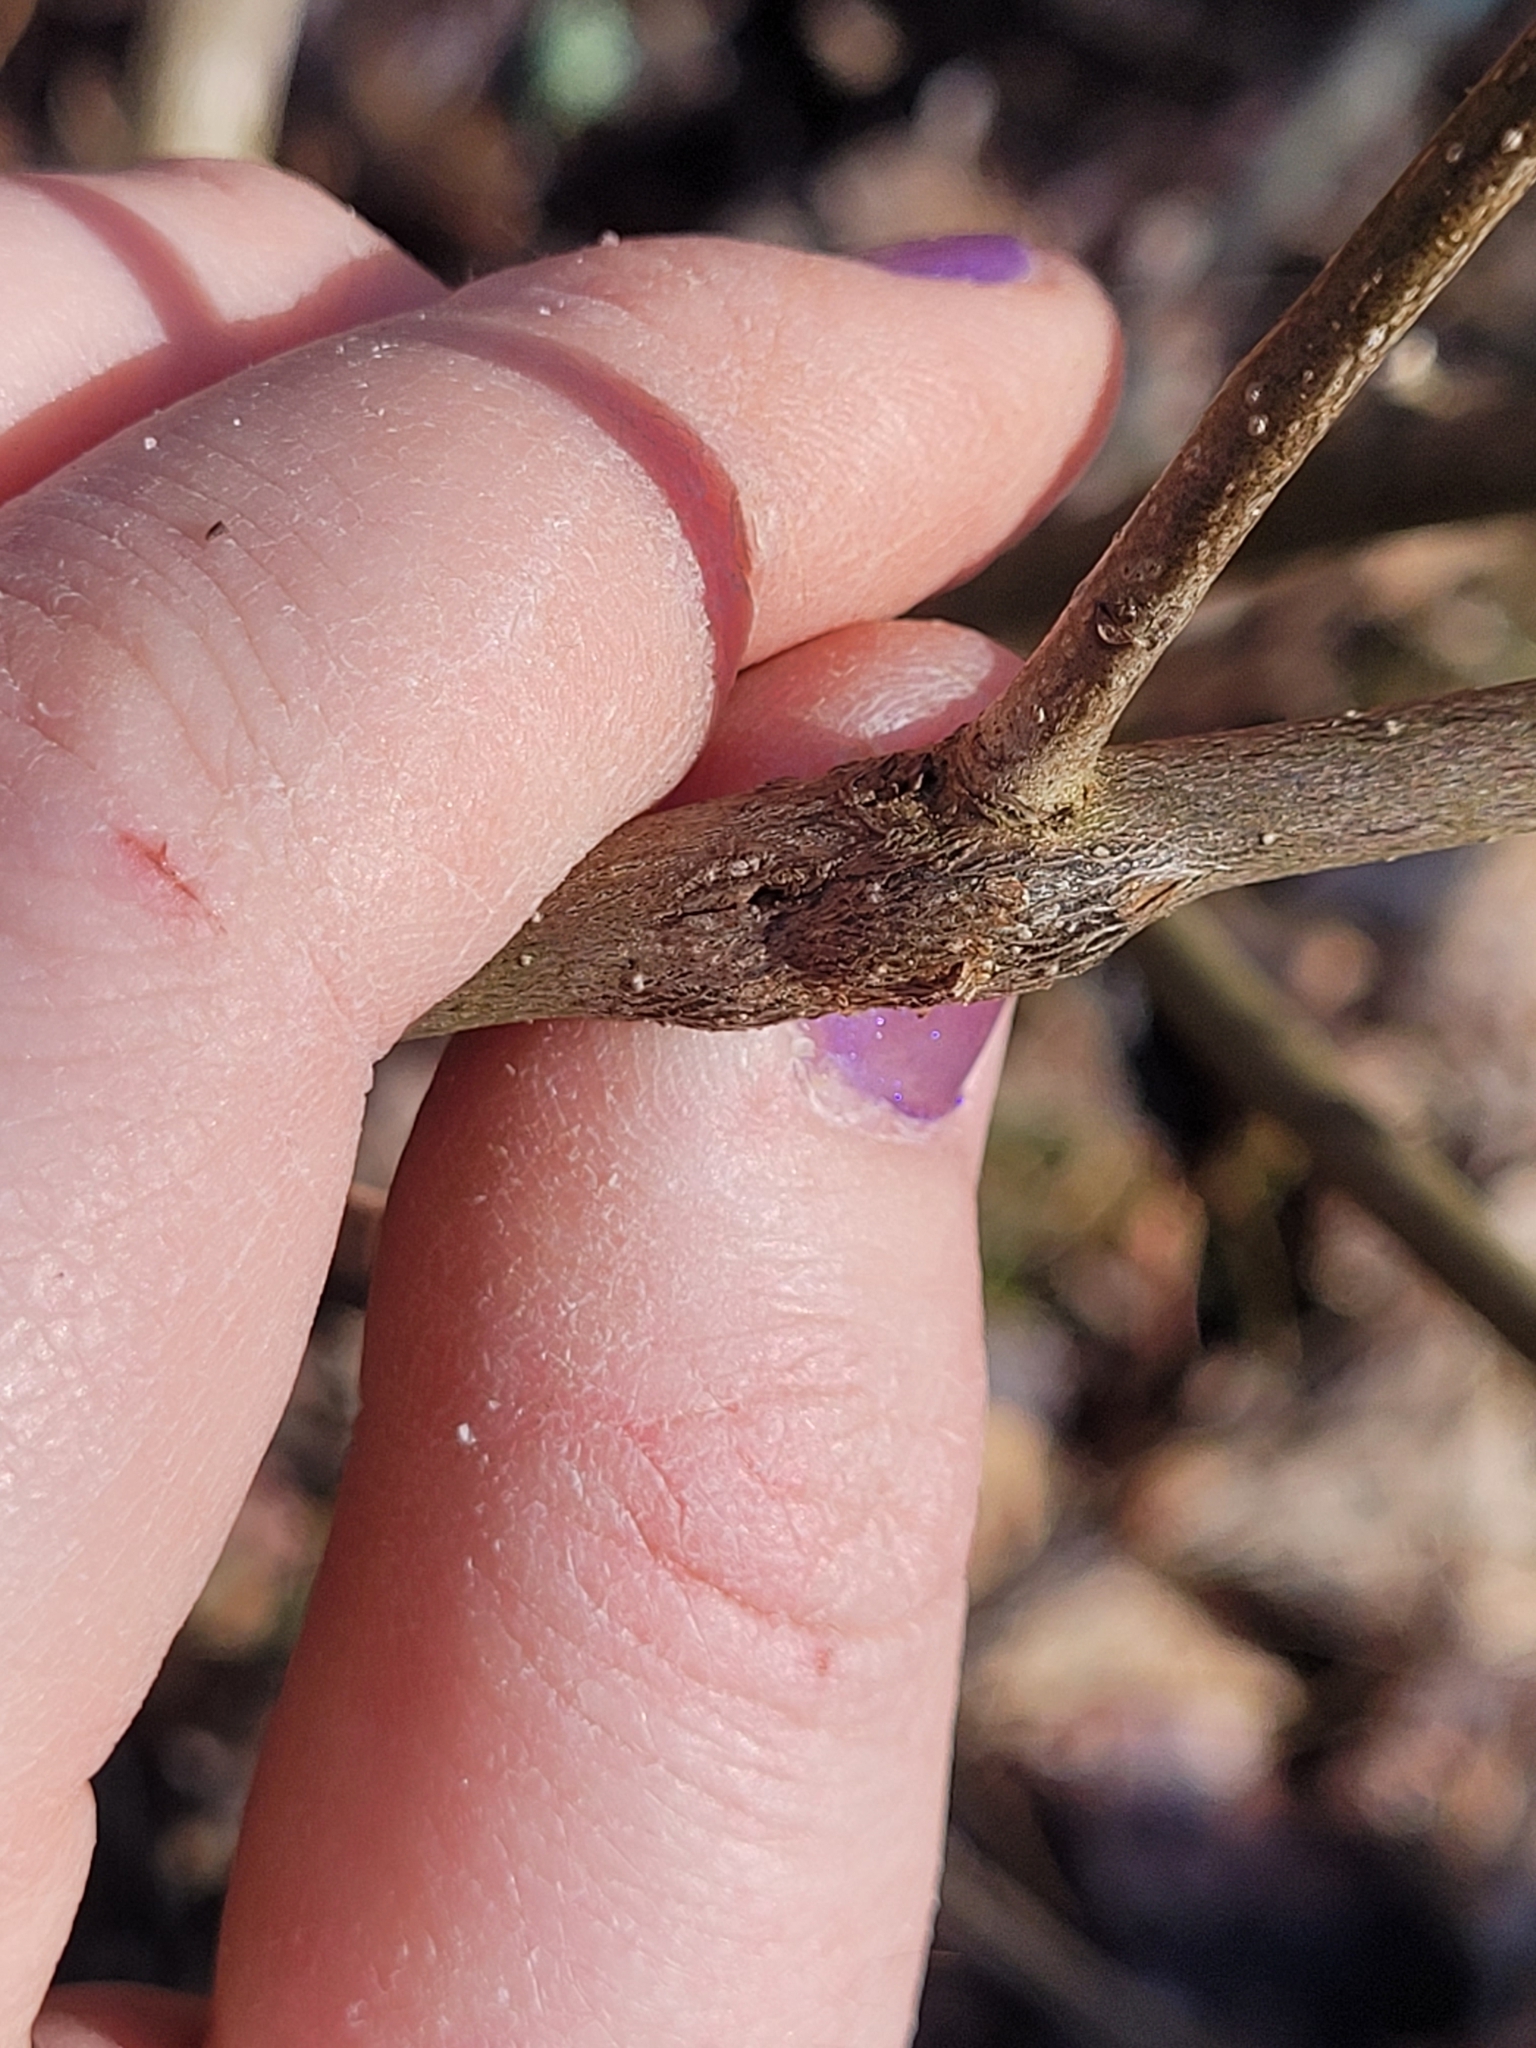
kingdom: Animalia
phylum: Arthropoda
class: Insecta
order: Diptera
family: Cecidomyiidae
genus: Neolasioptera
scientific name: Neolasioptera linderae
